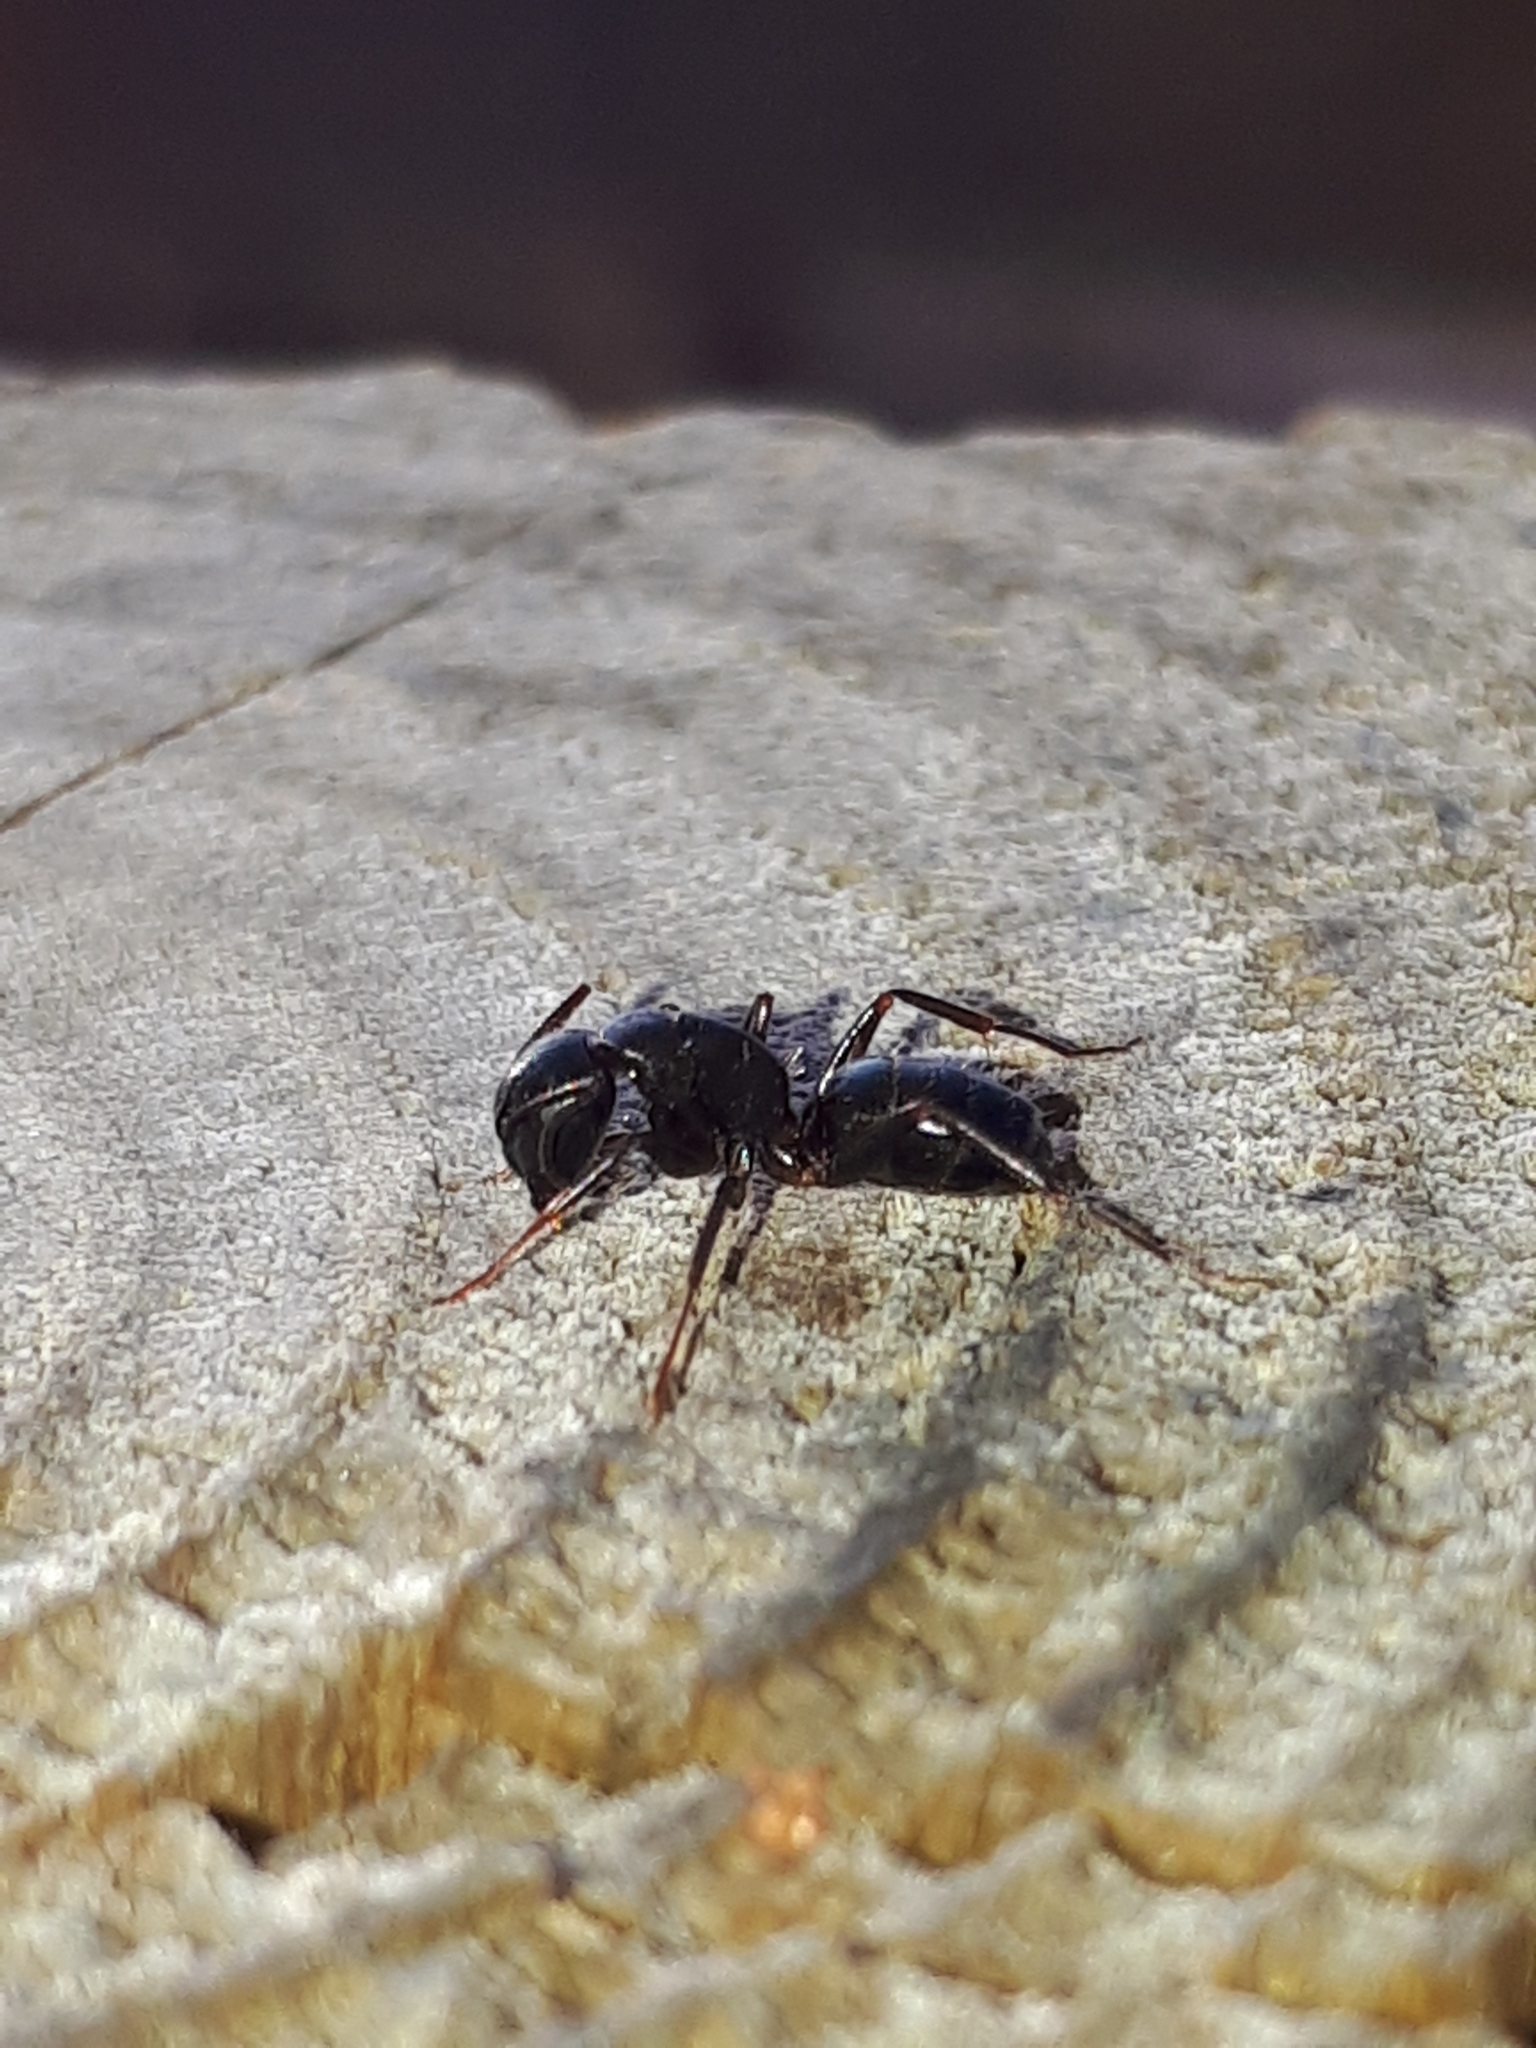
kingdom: Animalia
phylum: Arthropoda
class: Insecta
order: Hymenoptera
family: Formicidae
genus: Camponotus
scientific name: Camponotus fallax
